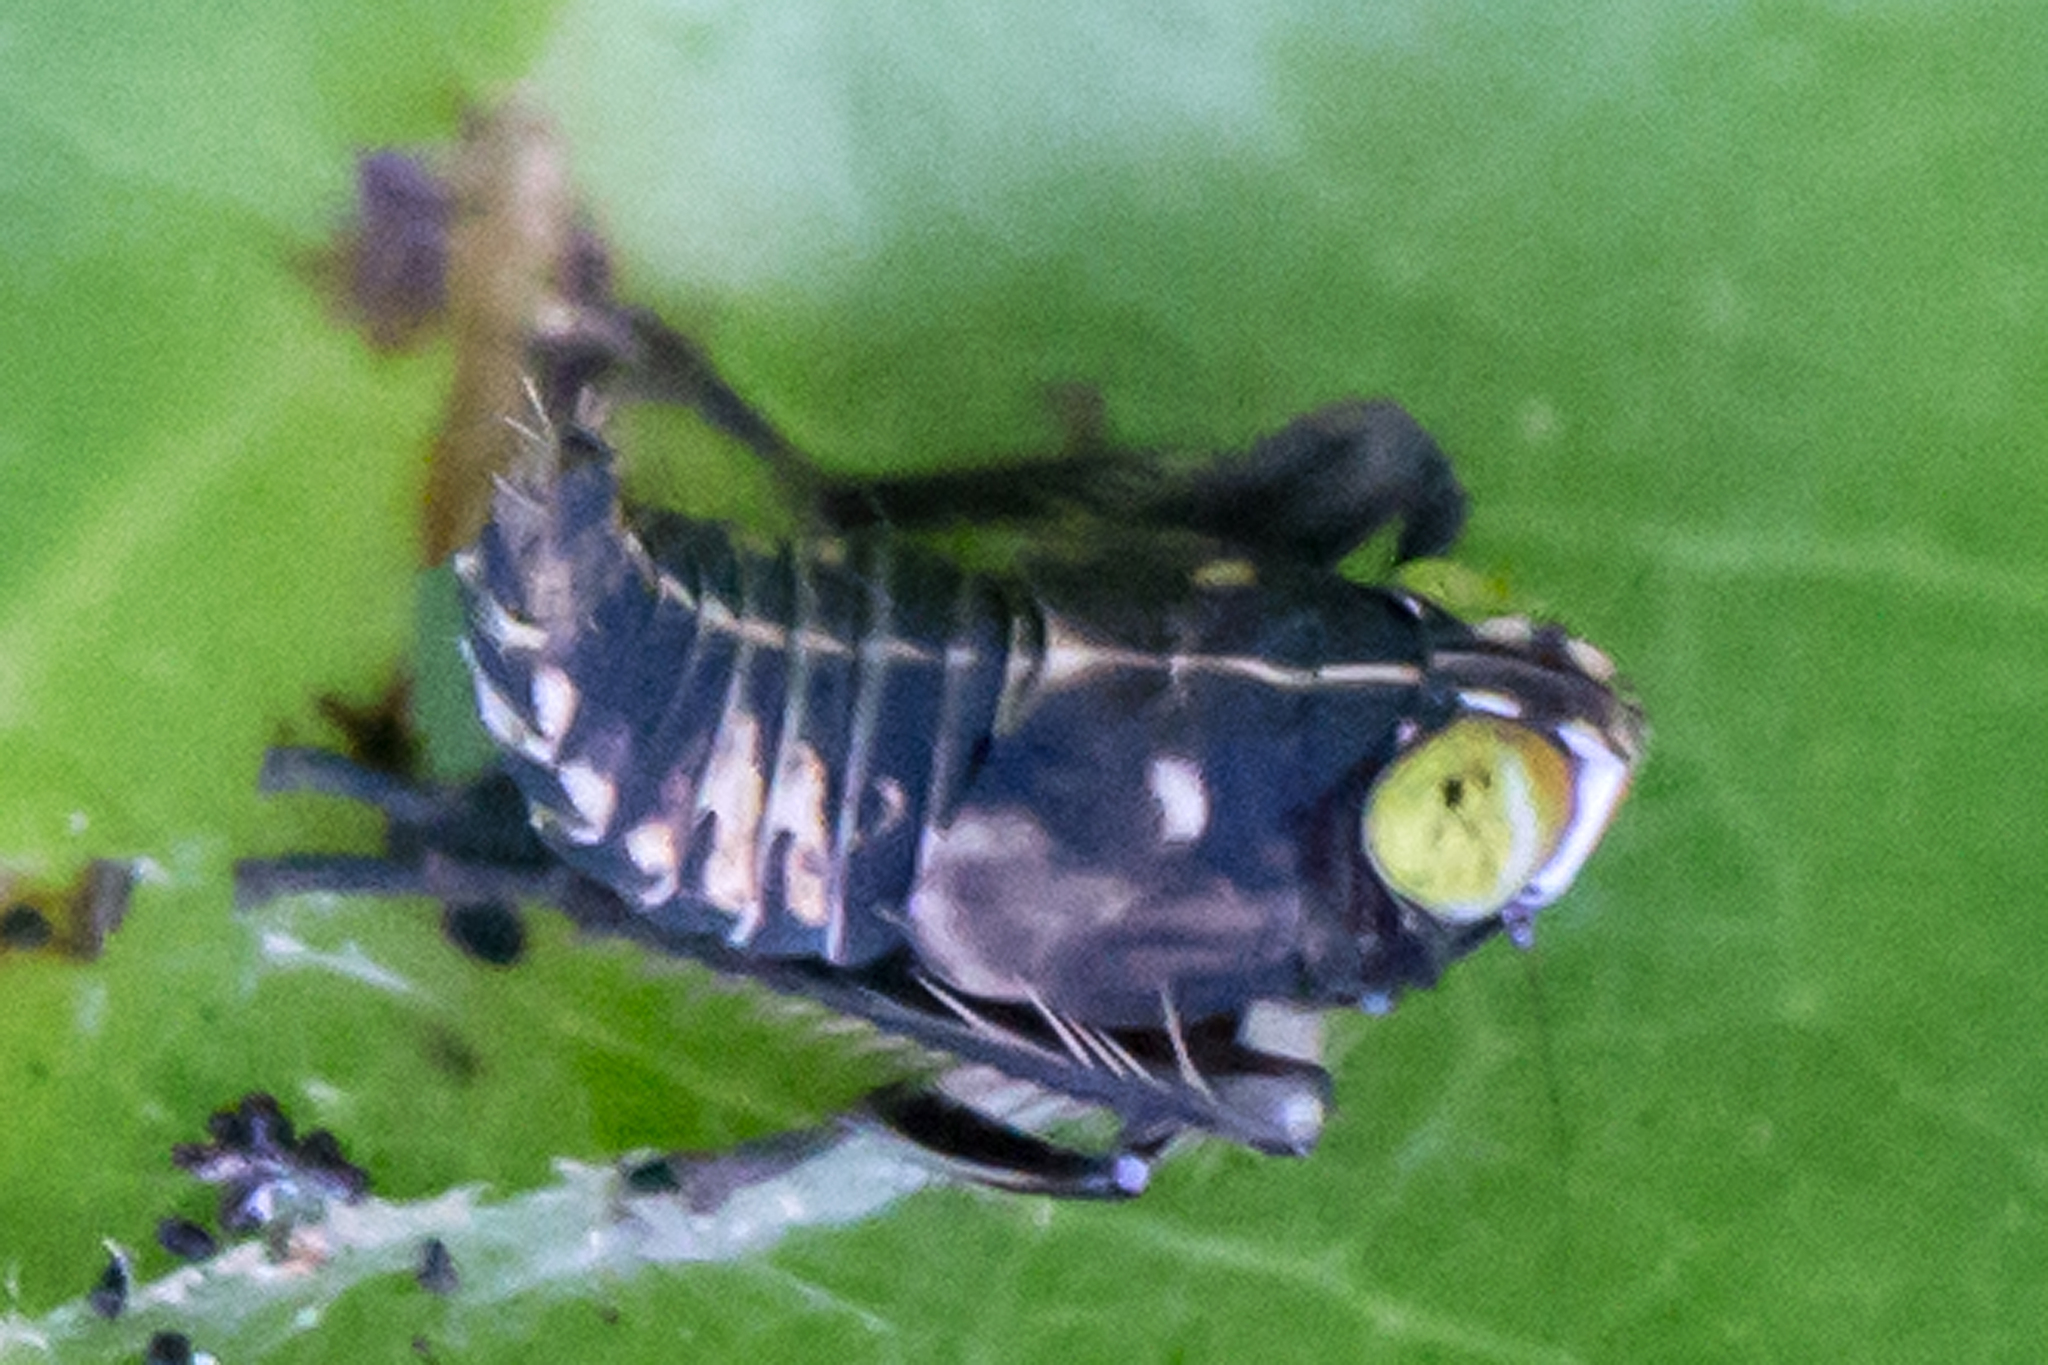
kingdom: Animalia
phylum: Arthropoda
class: Insecta
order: Hemiptera
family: Cicadellidae
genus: Jikradia
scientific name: Jikradia olitoria
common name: Coppery leafhopper
